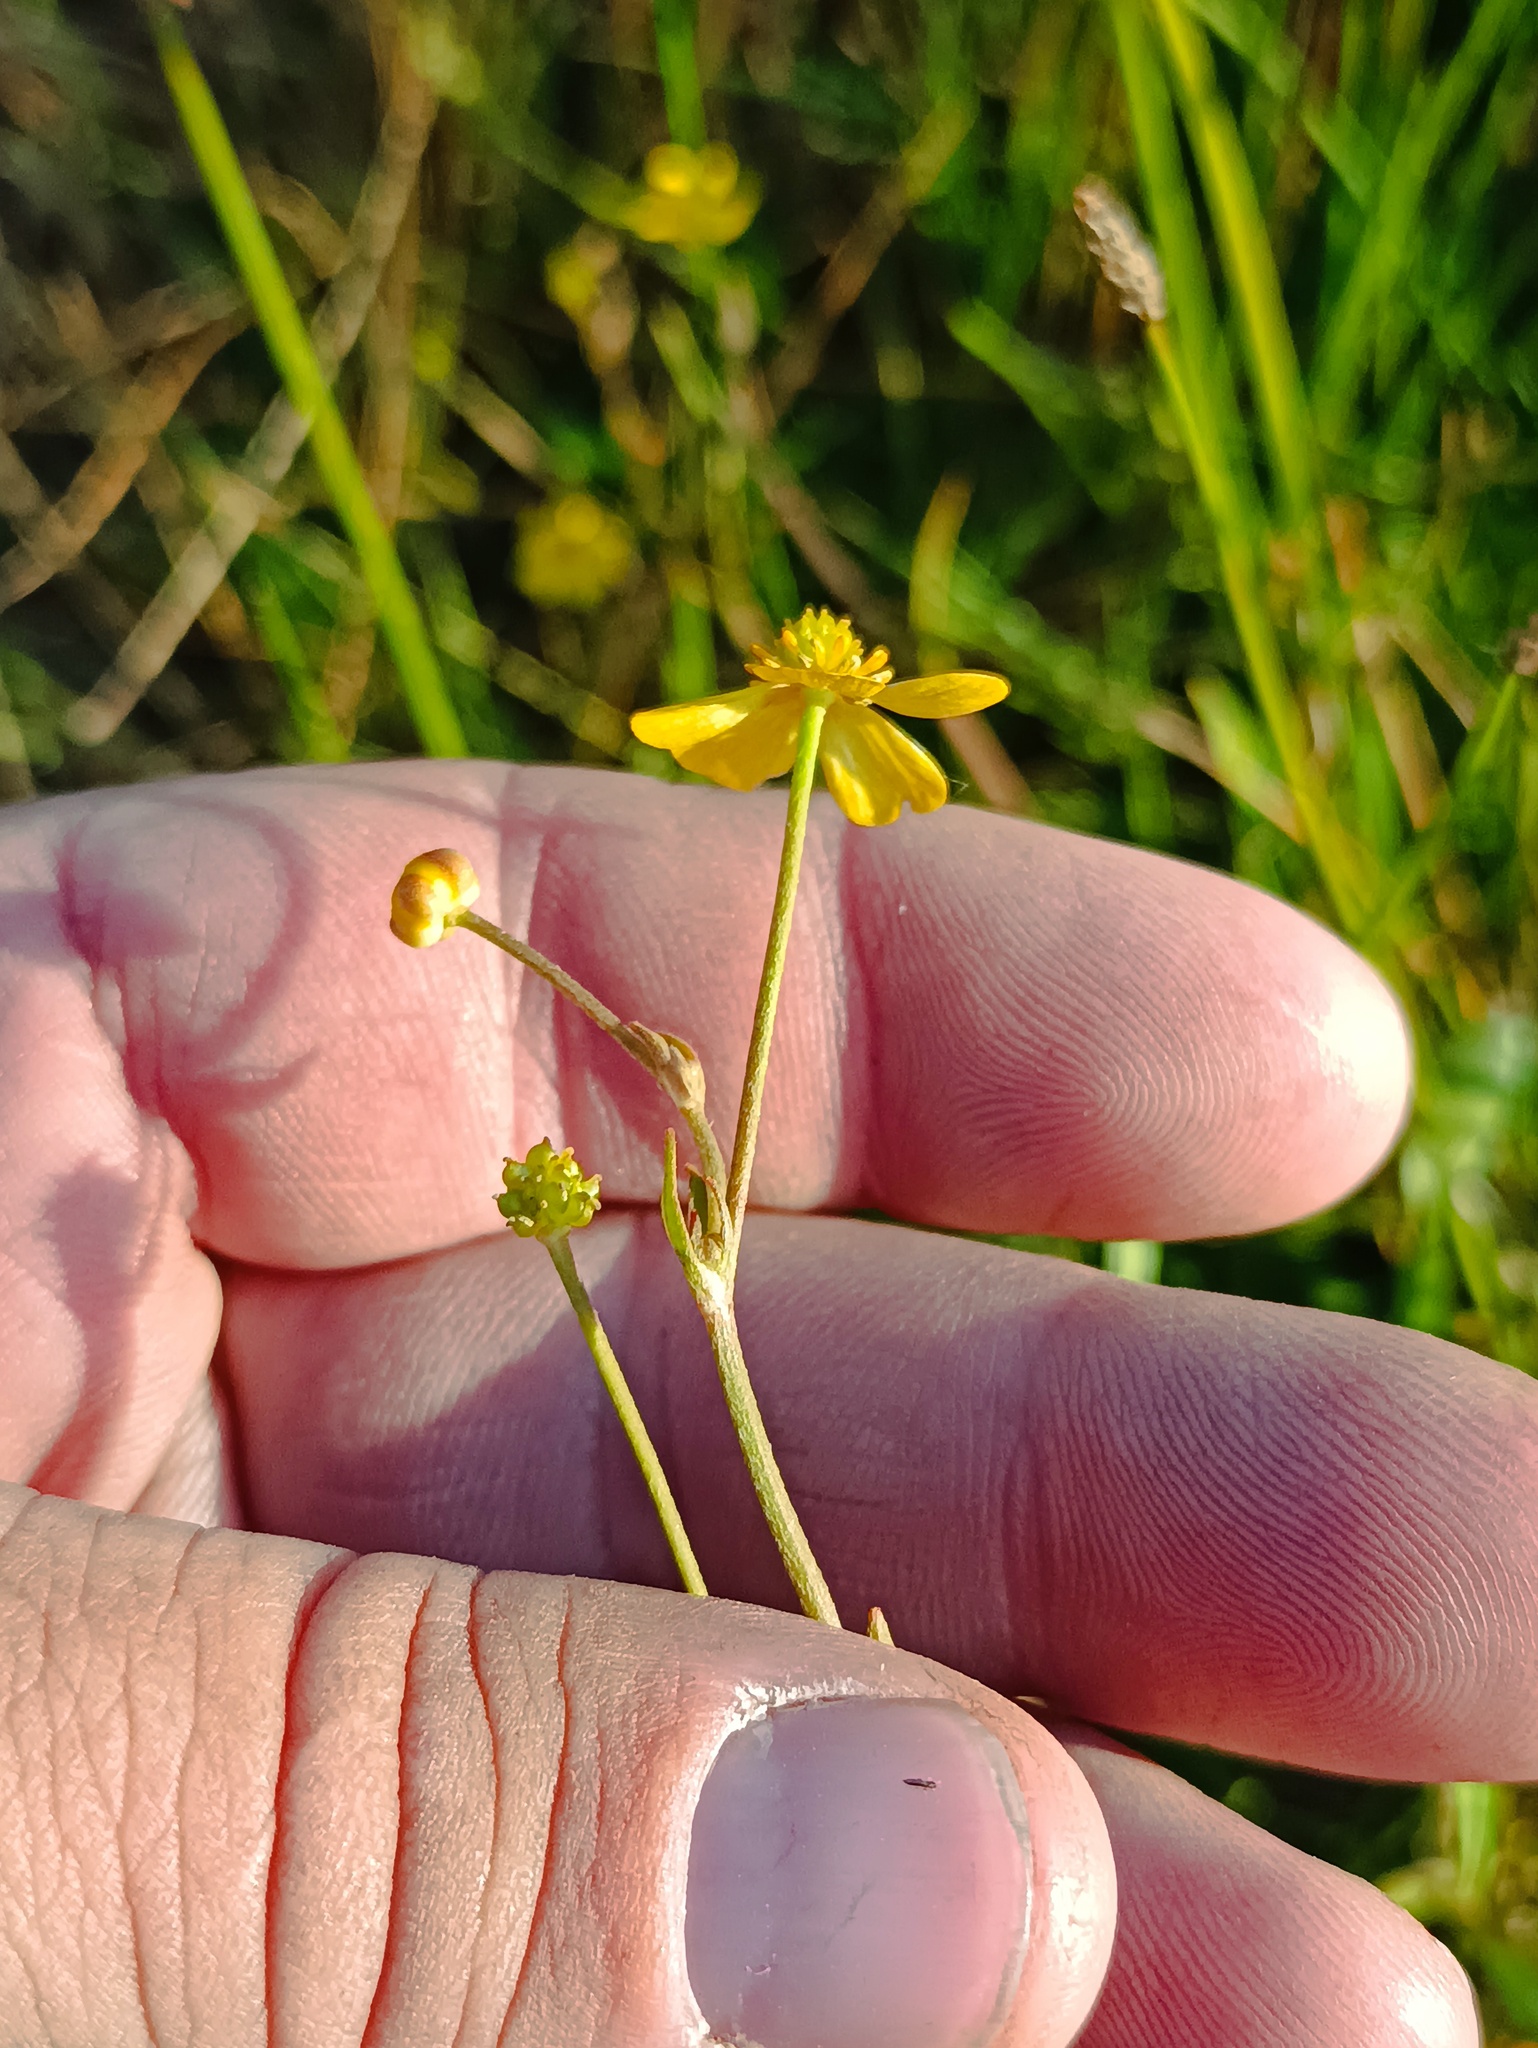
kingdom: Plantae
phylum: Tracheophyta
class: Magnoliopsida
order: Ranunculales
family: Ranunculaceae
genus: Ranunculus
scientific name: Ranunculus flammula
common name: Lesser spearwort
